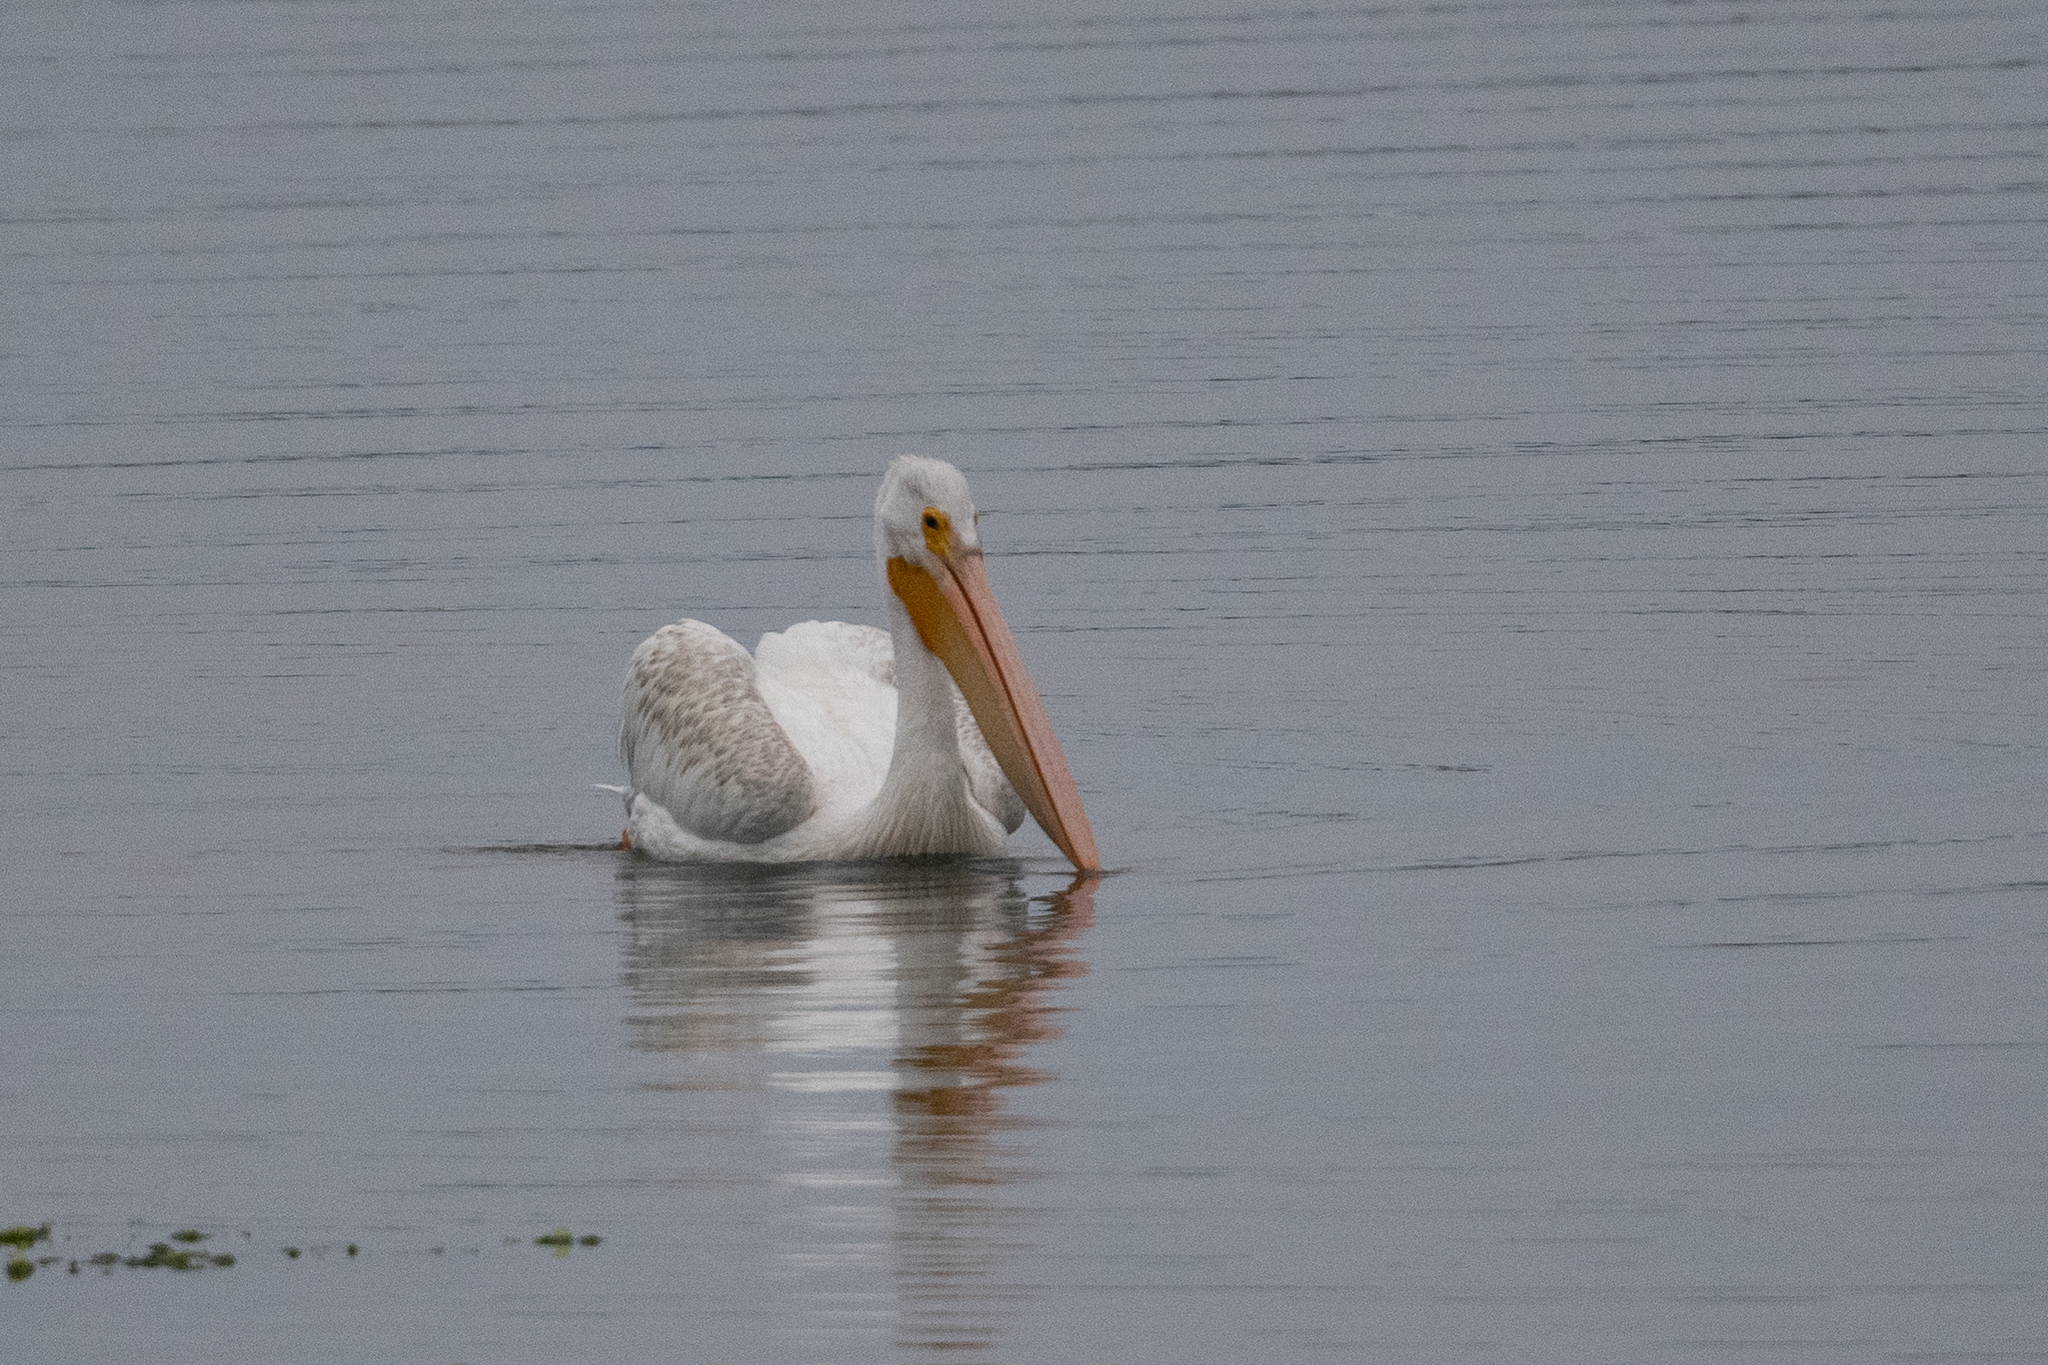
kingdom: Animalia
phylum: Chordata
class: Aves
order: Pelecaniformes
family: Pelecanidae
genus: Pelecanus
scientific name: Pelecanus erythrorhynchos
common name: American white pelican
